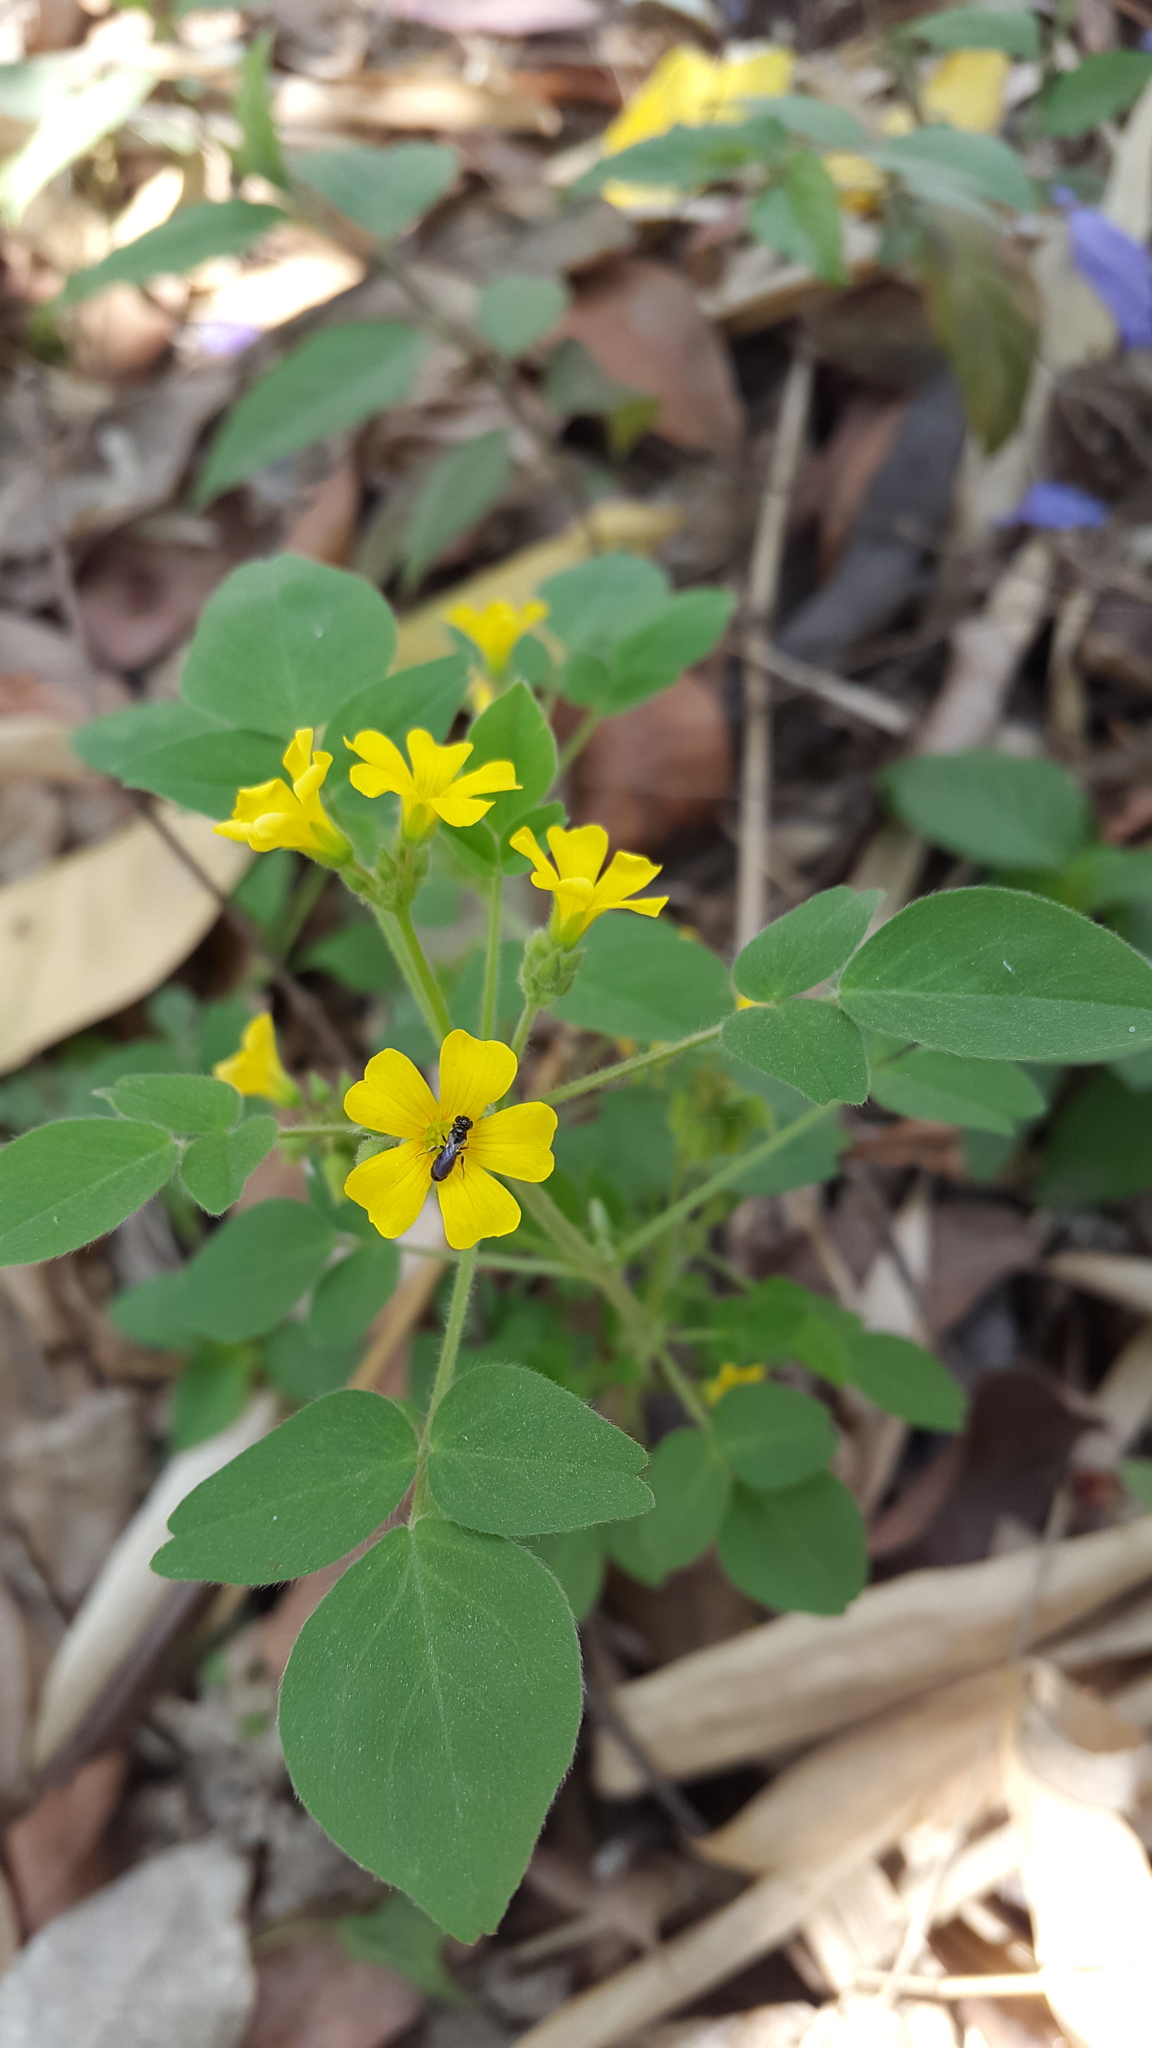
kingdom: Animalia
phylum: Arthropoda
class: Insecta
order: Hymenoptera
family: Apidae
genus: Ceratina
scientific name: Ceratina
